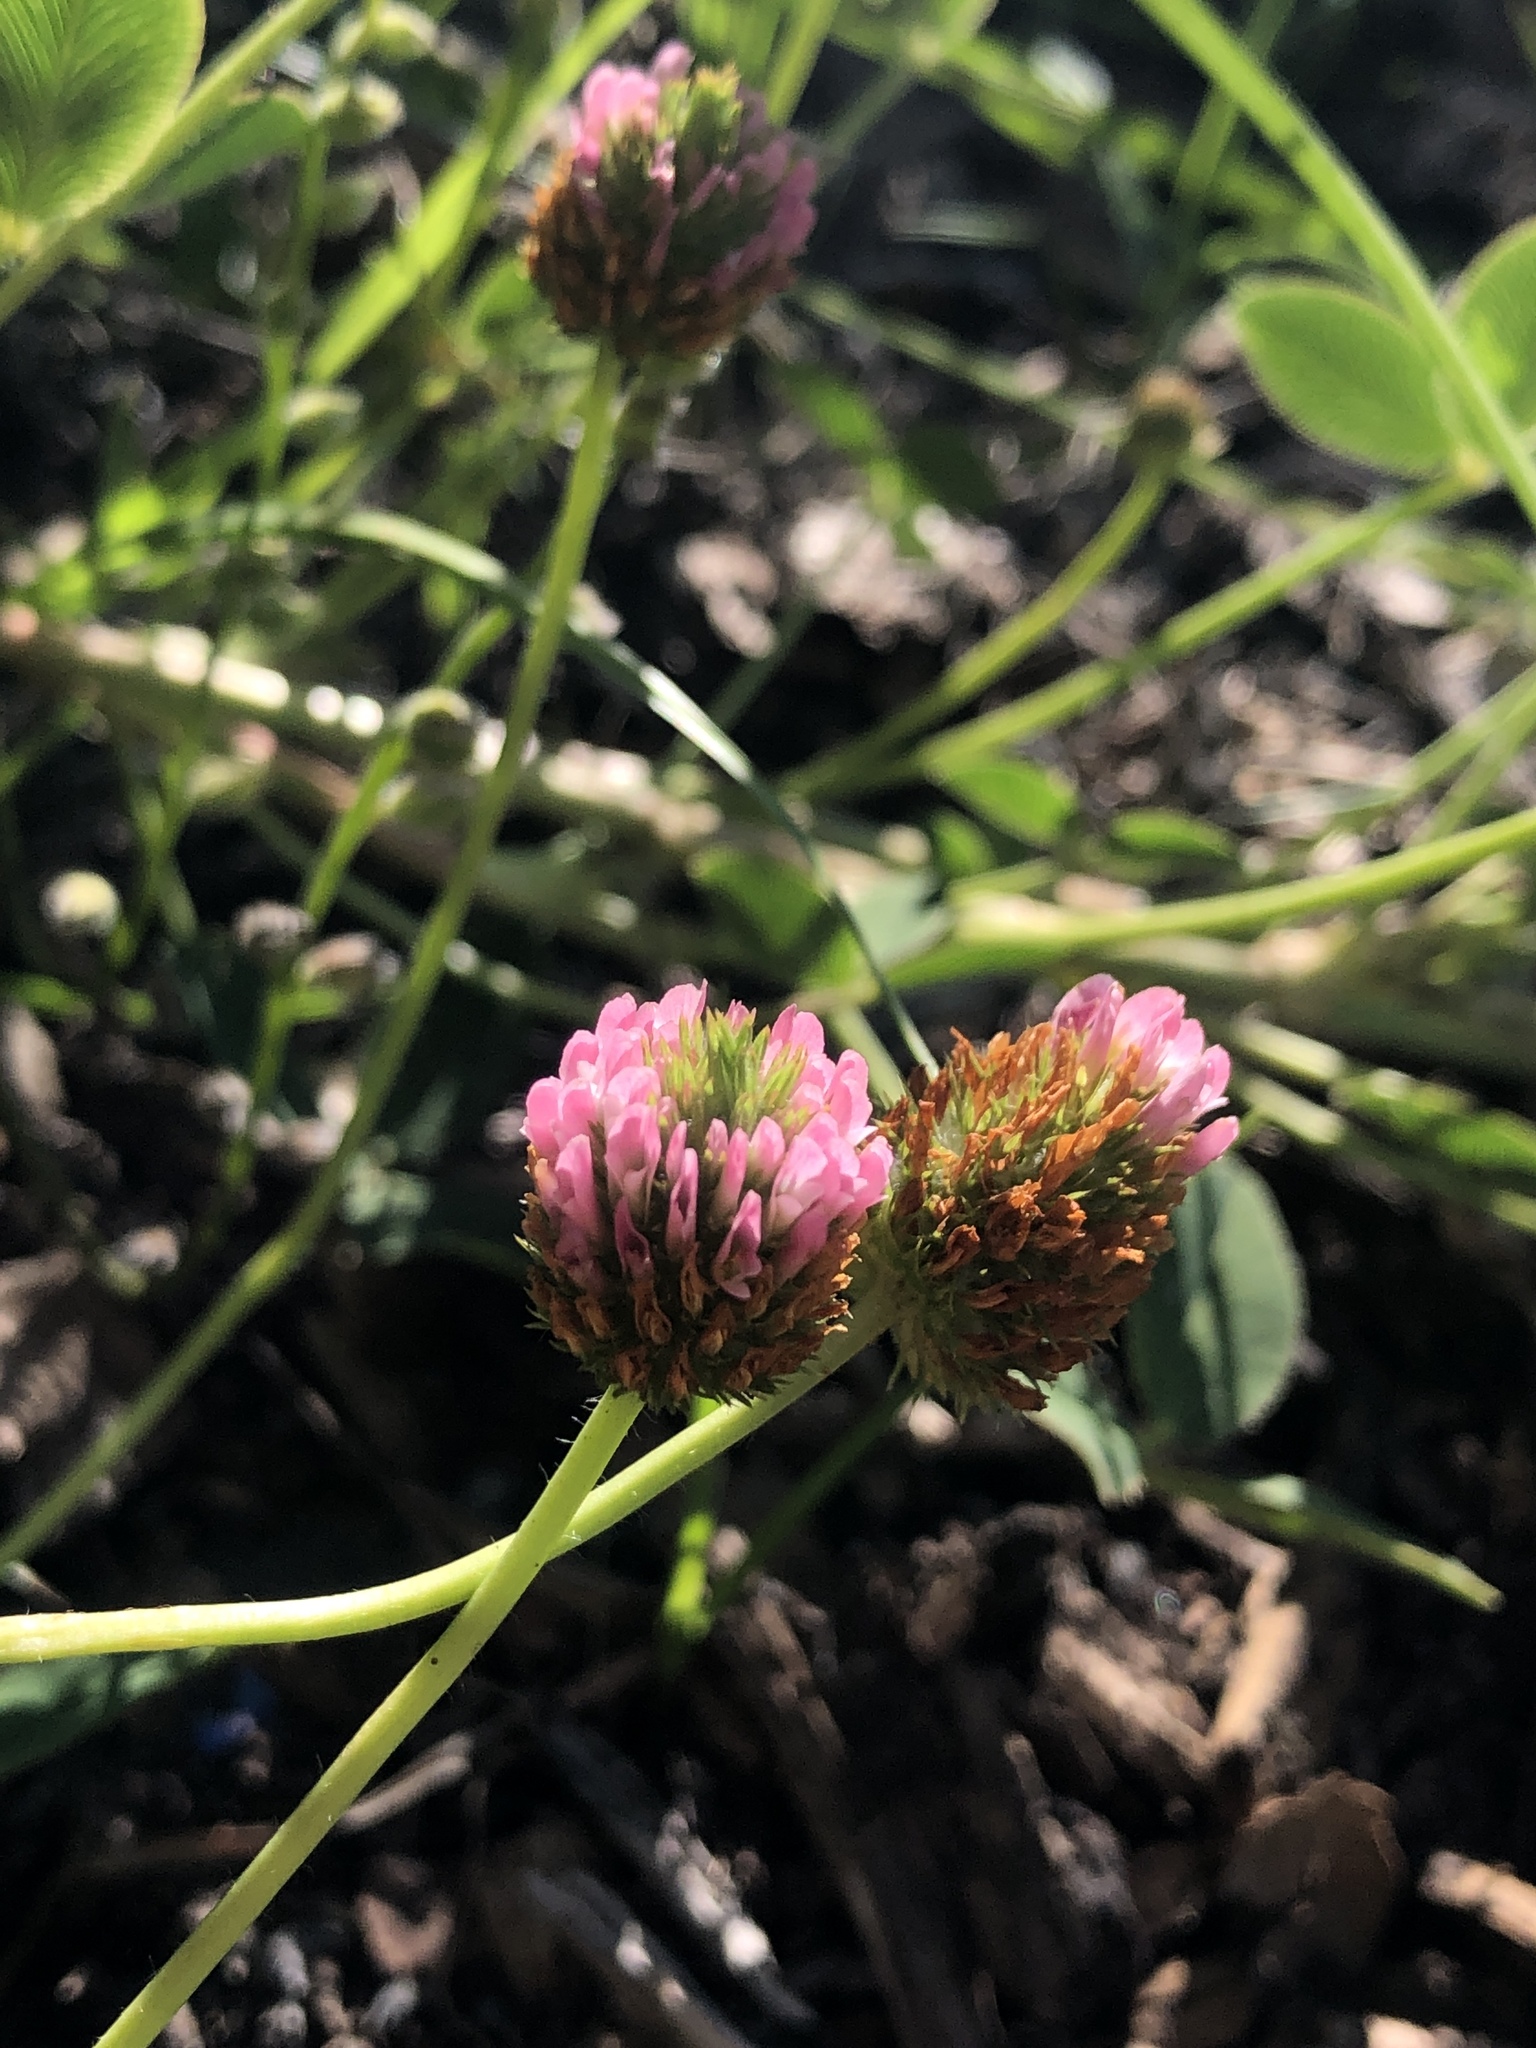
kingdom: Plantae
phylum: Tracheophyta
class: Magnoliopsida
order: Fabales
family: Fabaceae
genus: Trifolium
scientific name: Trifolium fragiferum
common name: Strawberry clover
